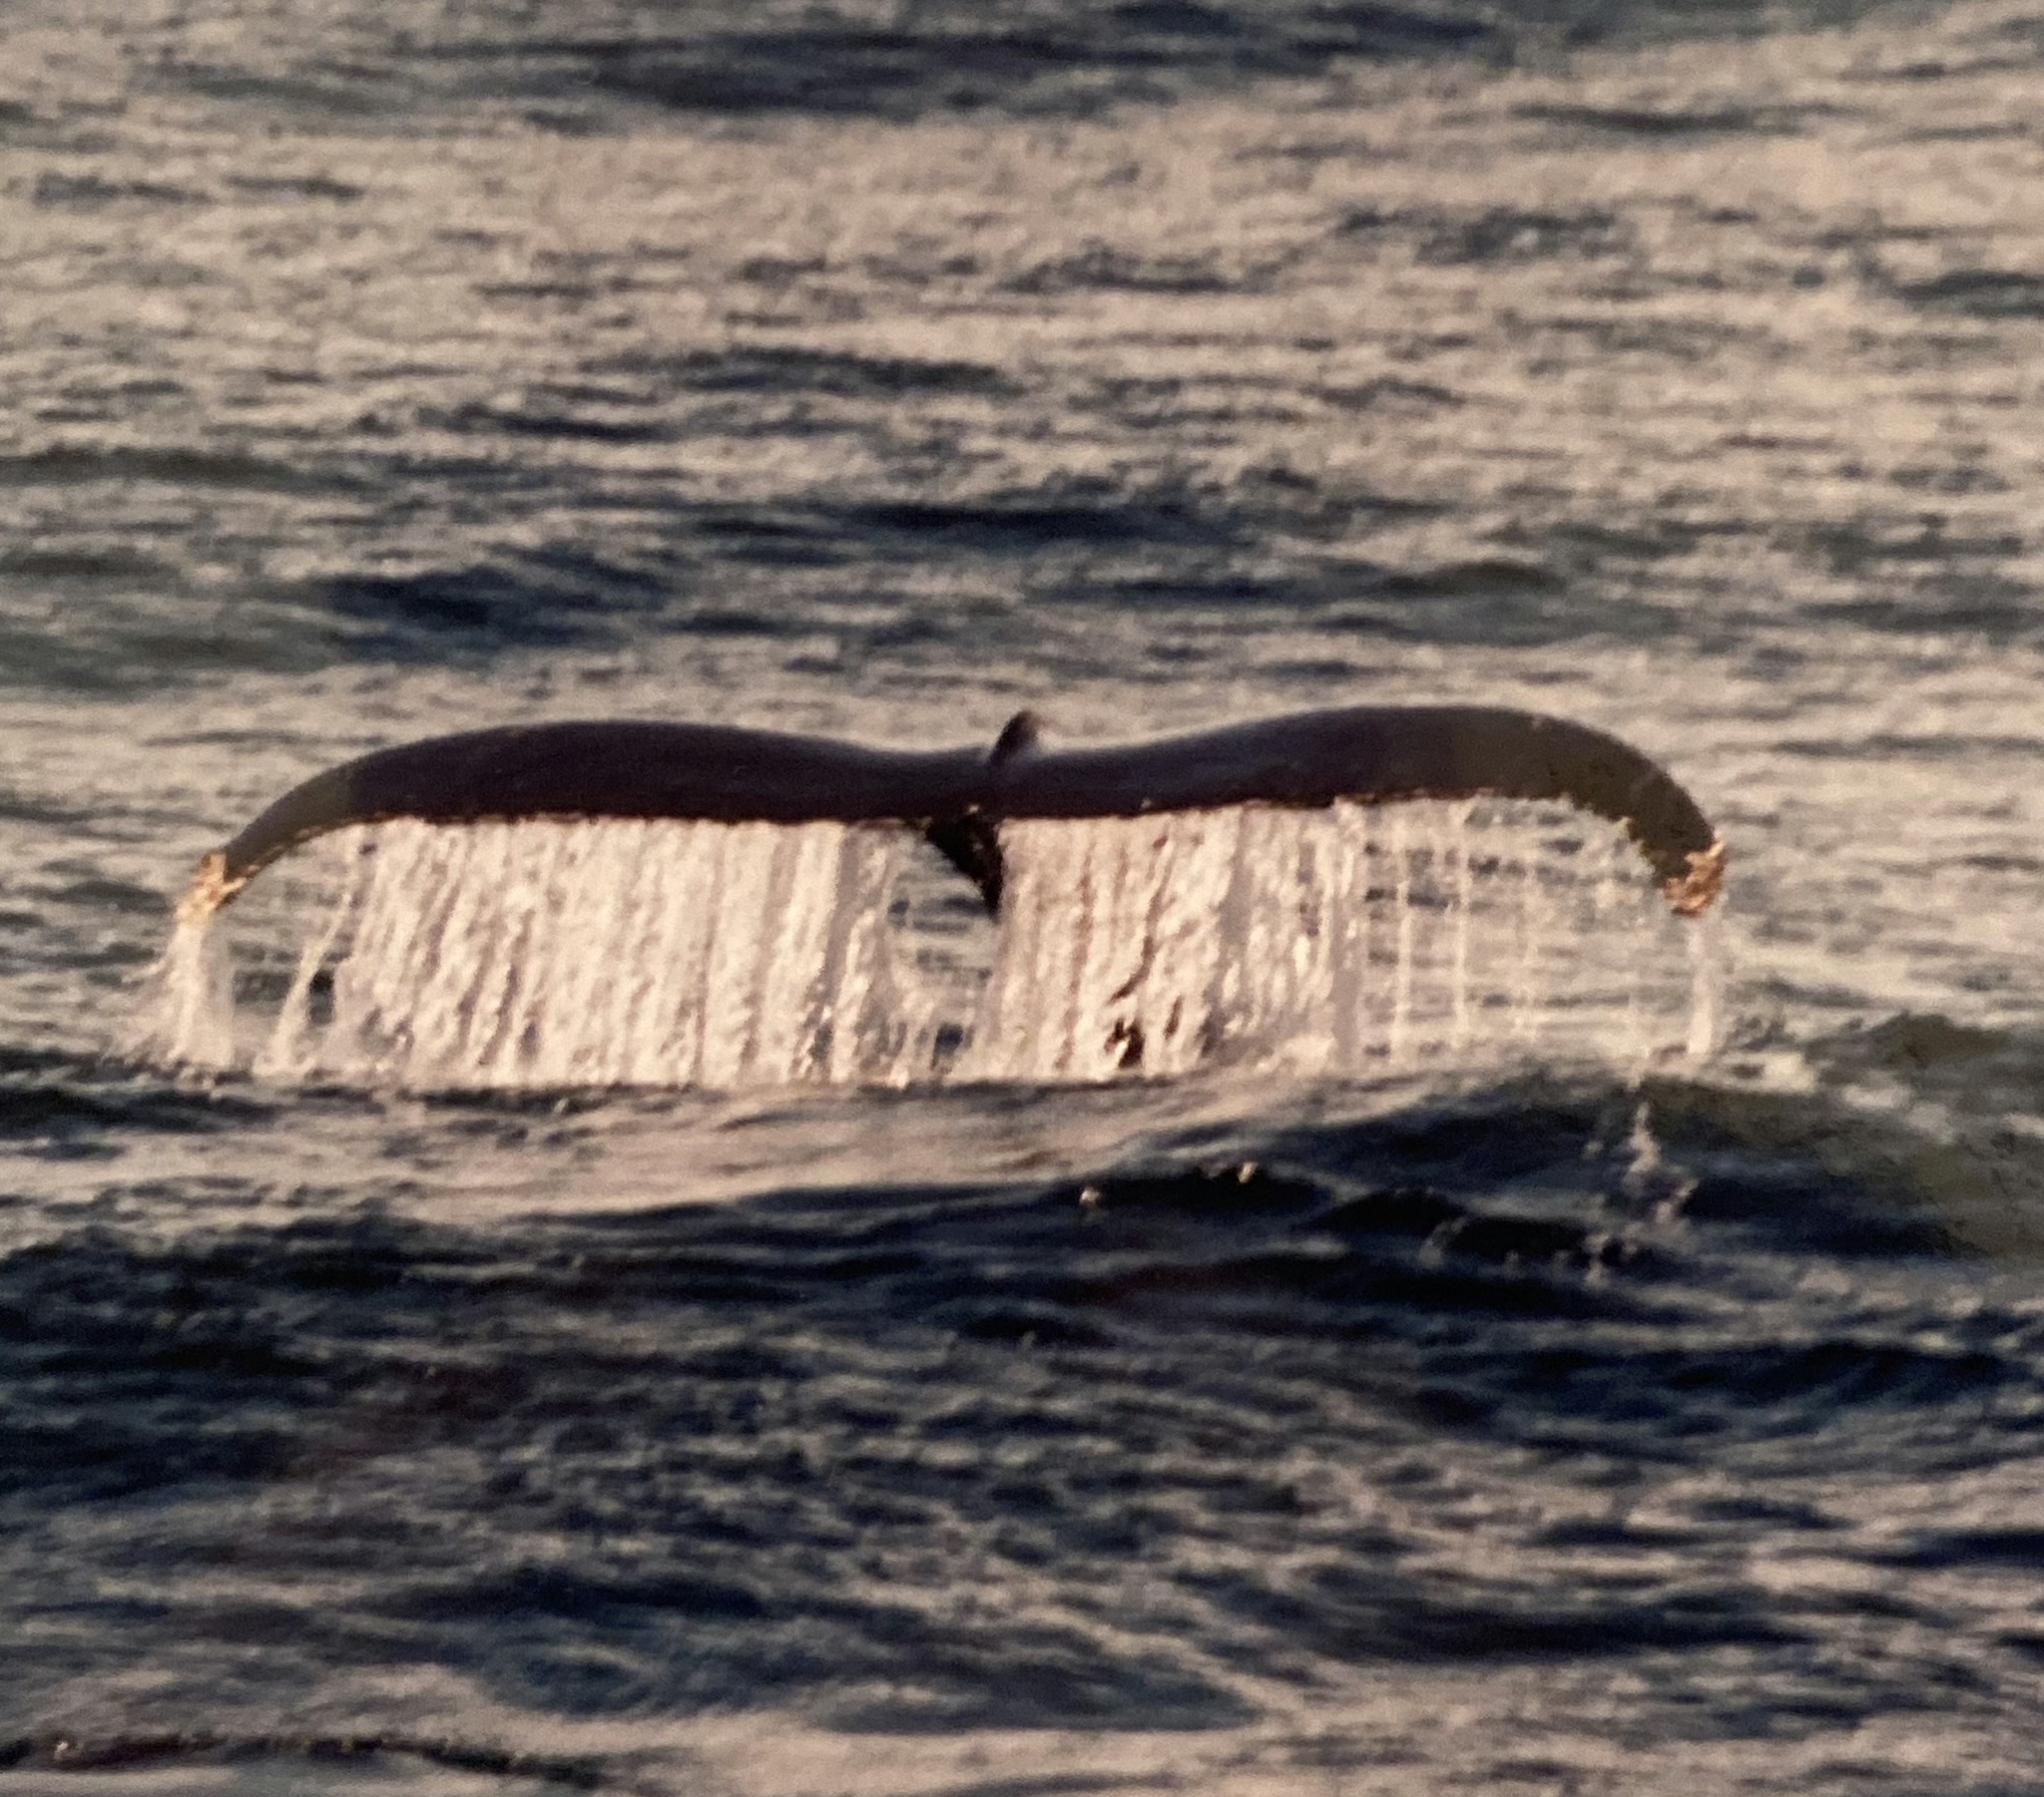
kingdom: Animalia
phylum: Chordata
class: Mammalia
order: Cetacea
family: Balaenopteridae
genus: Megaptera
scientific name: Megaptera novaeangliae
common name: Humpback whale
